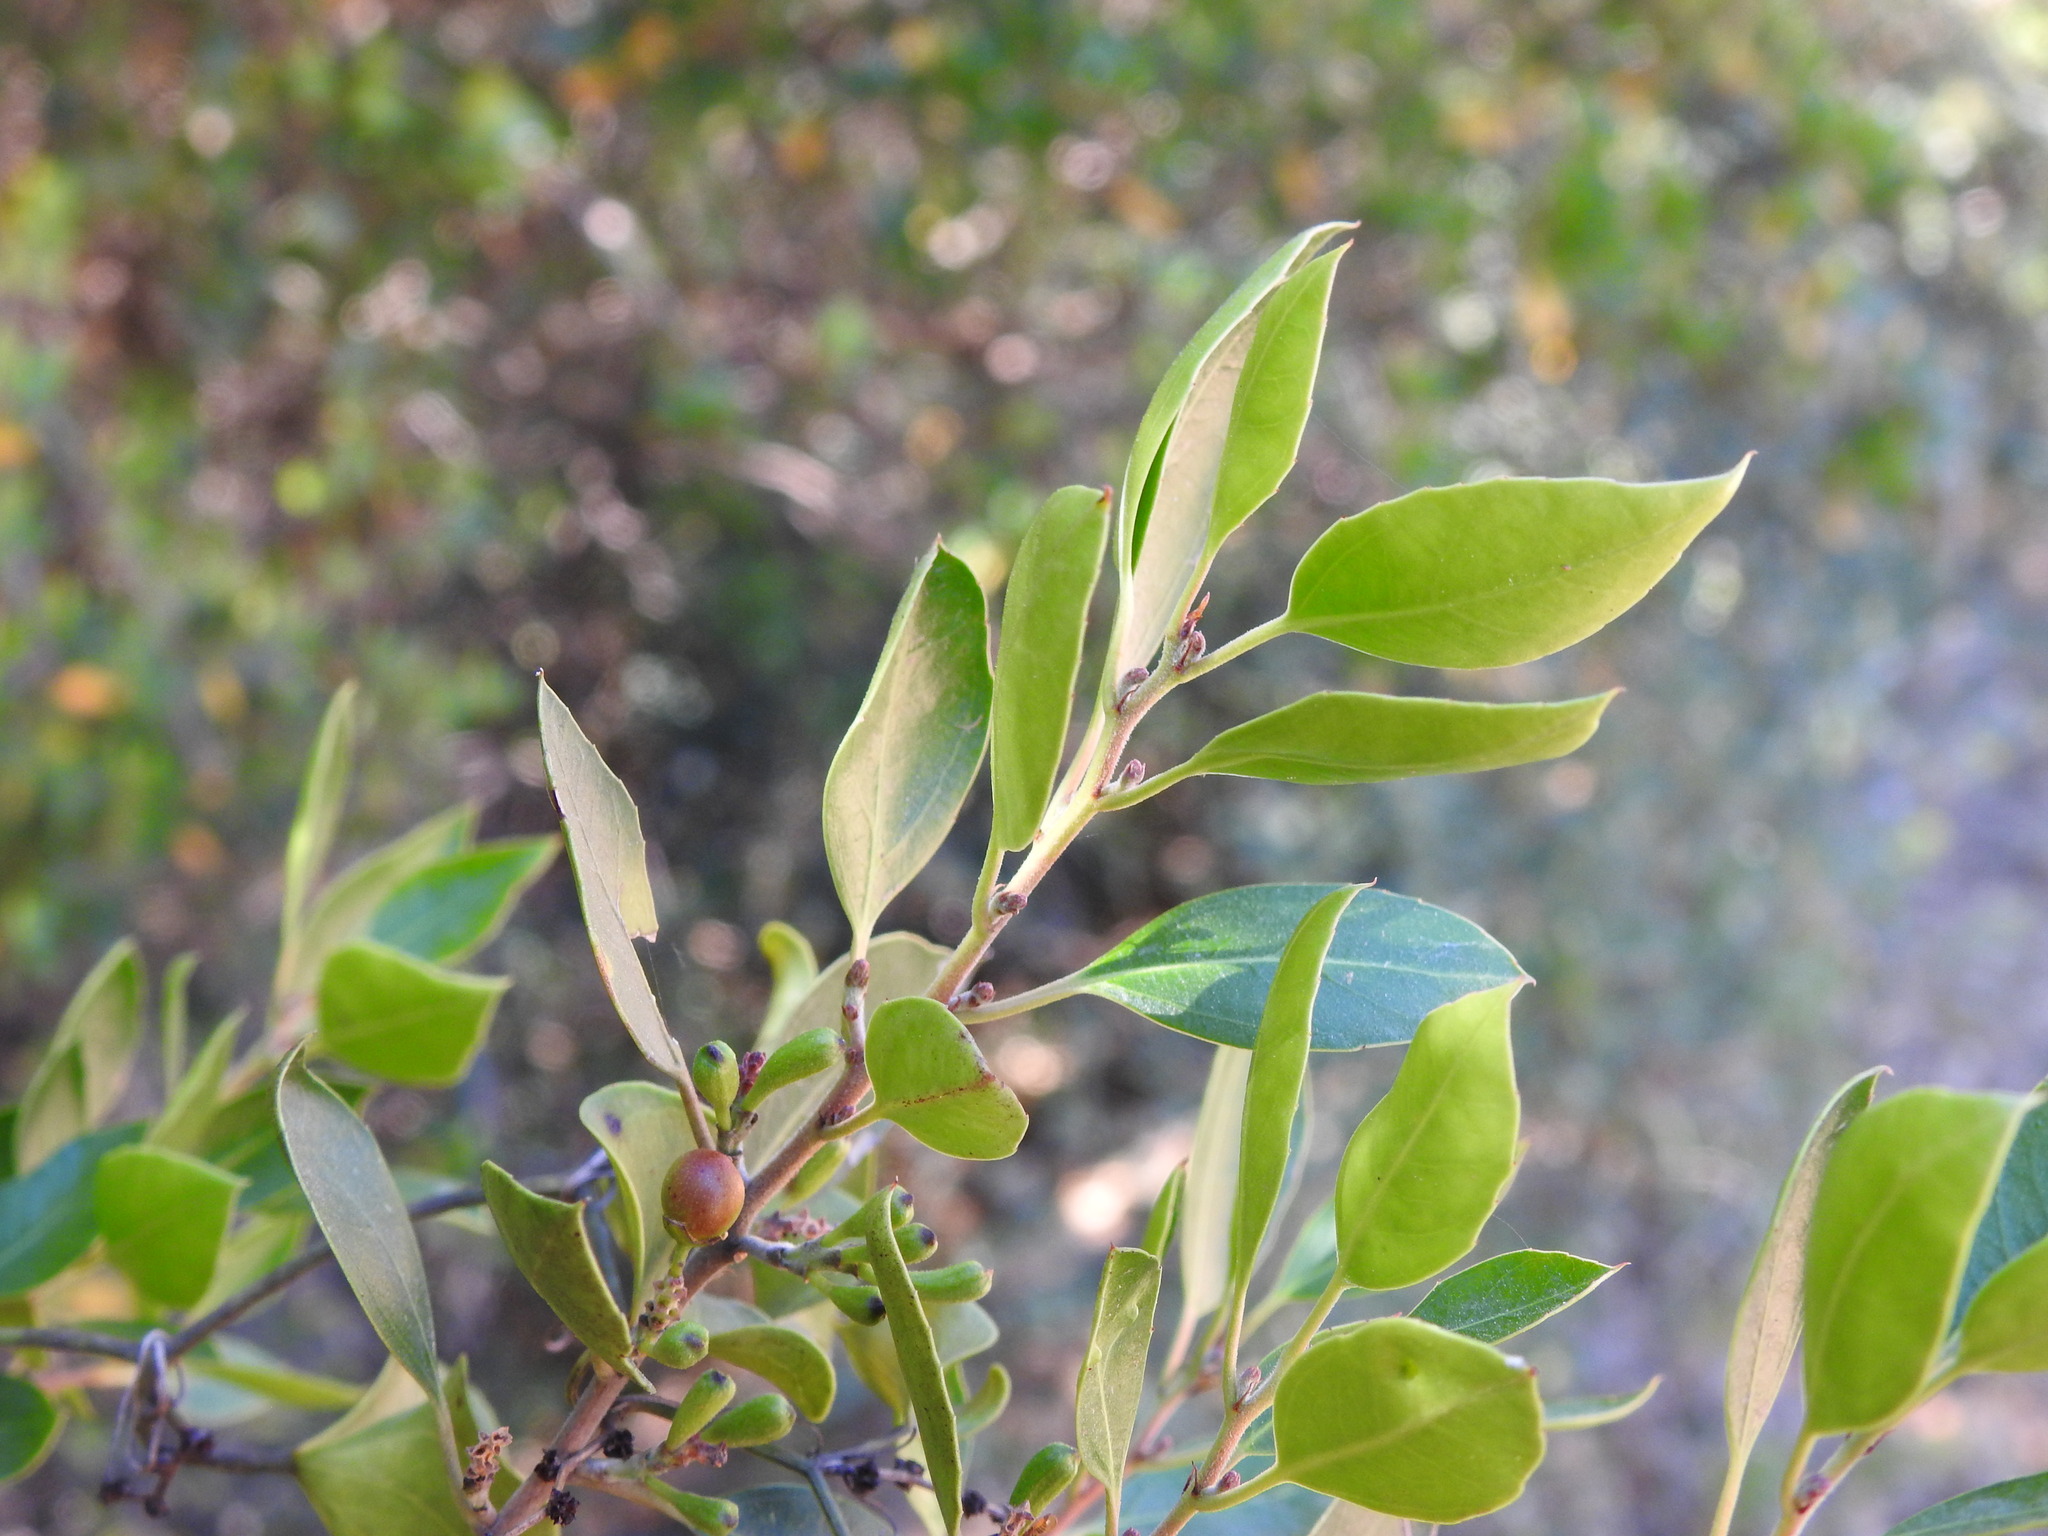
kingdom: Plantae
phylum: Tracheophyta
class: Magnoliopsida
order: Rosales
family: Rhamnaceae
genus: Rhamnus
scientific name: Rhamnus alaternus
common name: Mediterranean buckthorn
